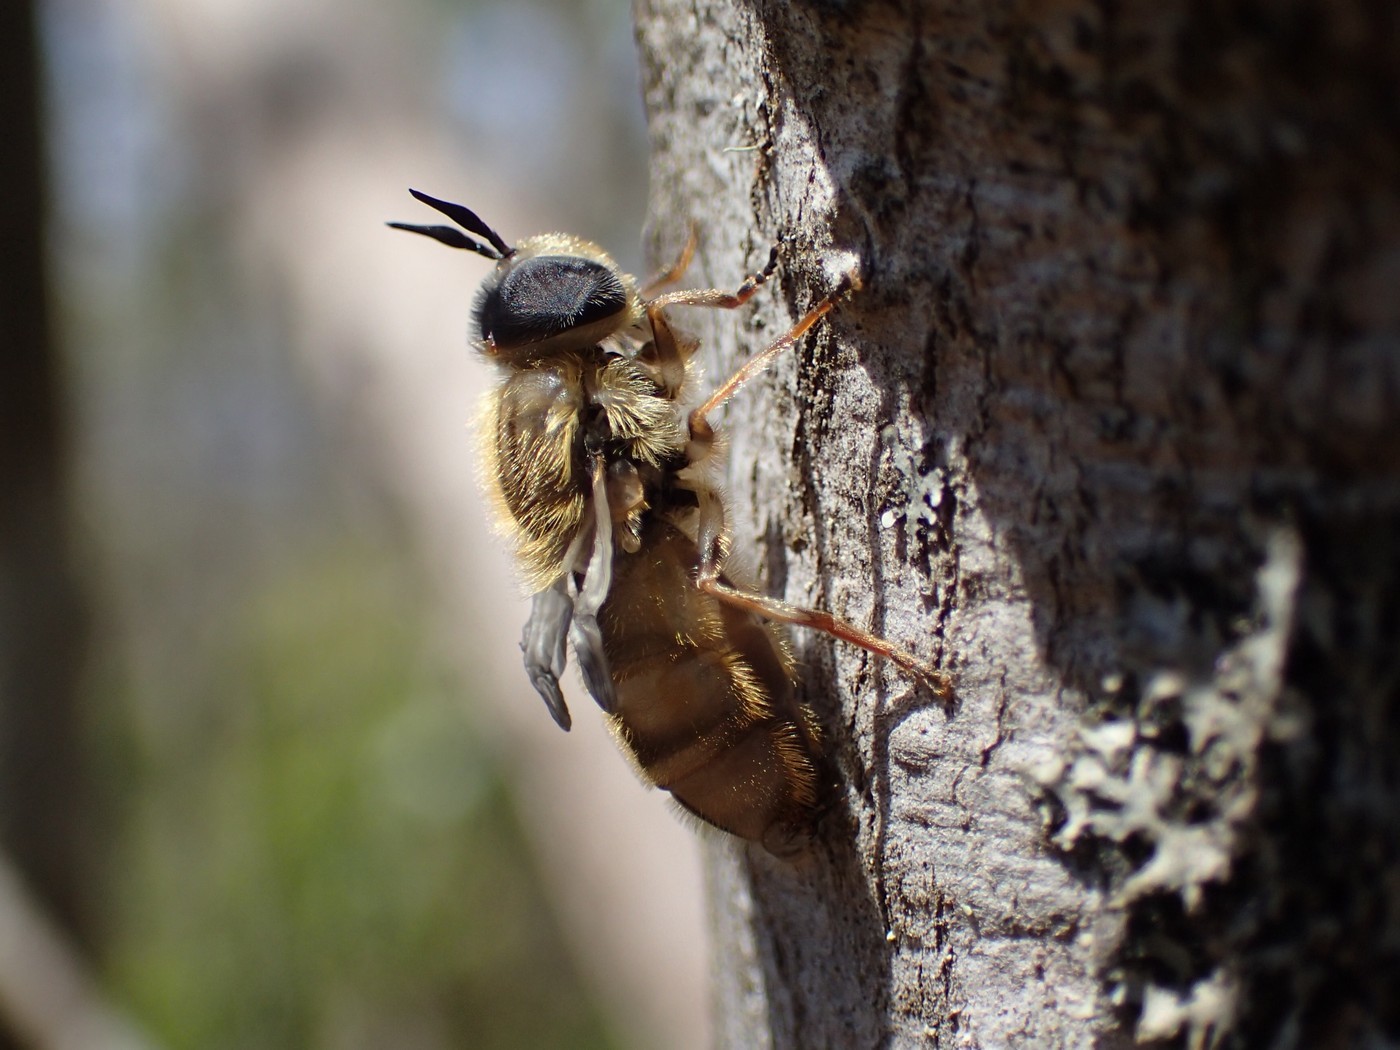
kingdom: Animalia
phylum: Arthropoda
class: Insecta
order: Diptera
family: Syrphidae
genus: Callicera
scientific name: Callicera erratica
